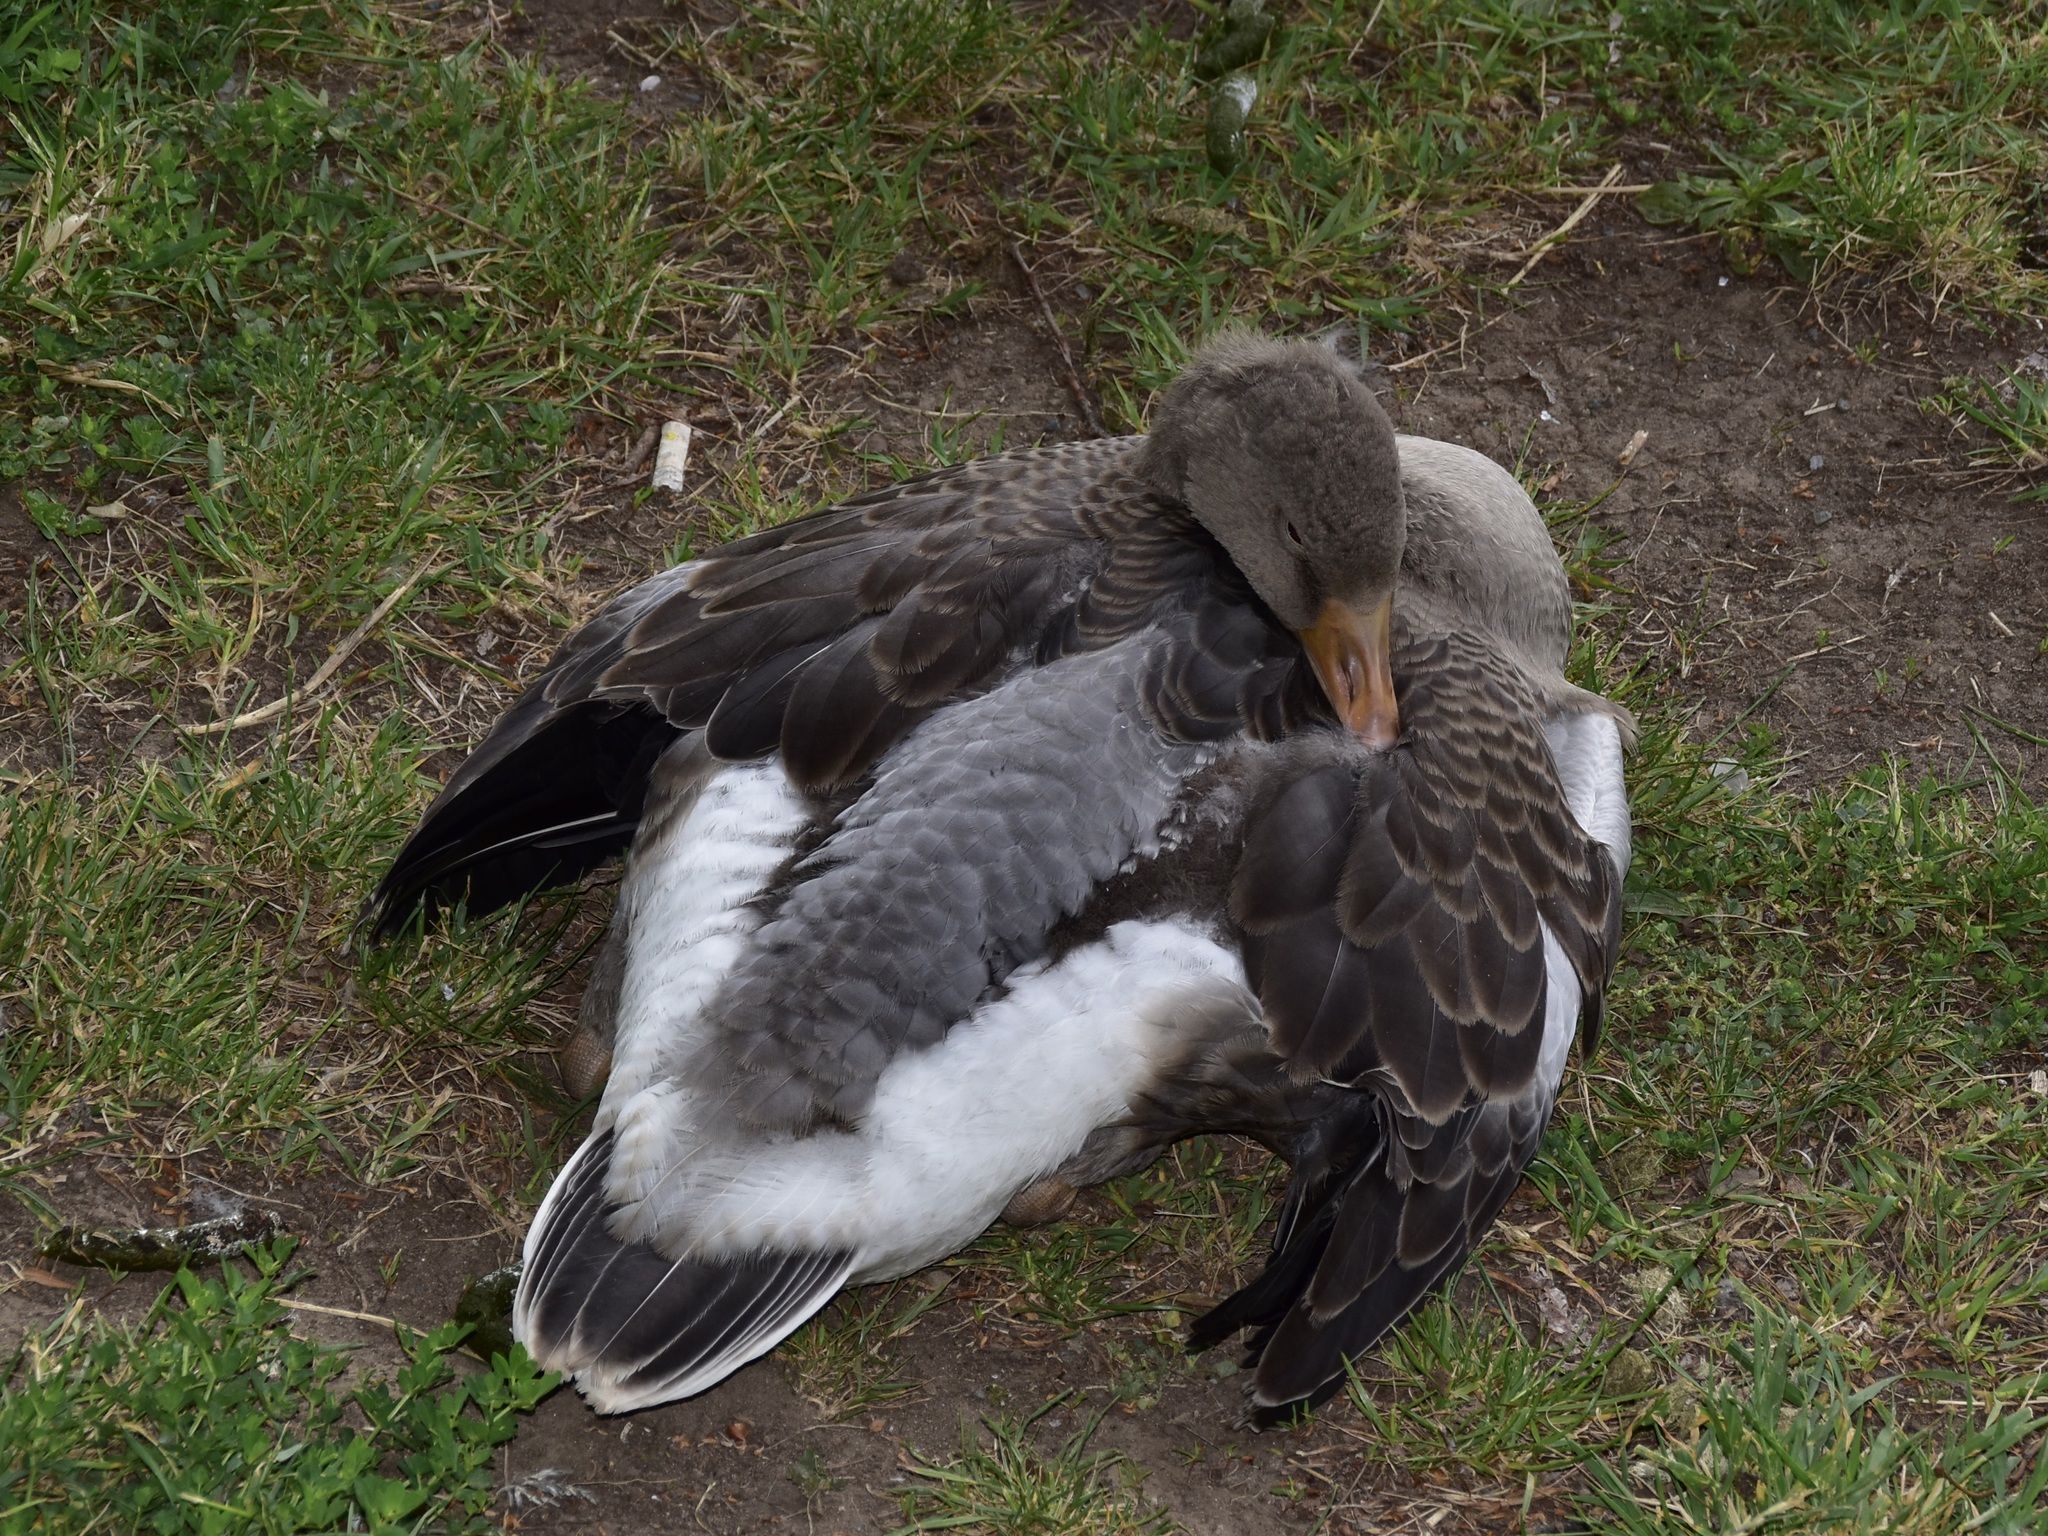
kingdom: Animalia
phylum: Chordata
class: Aves
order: Anseriformes
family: Anatidae
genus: Anser
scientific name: Anser anser
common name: Greylag goose
